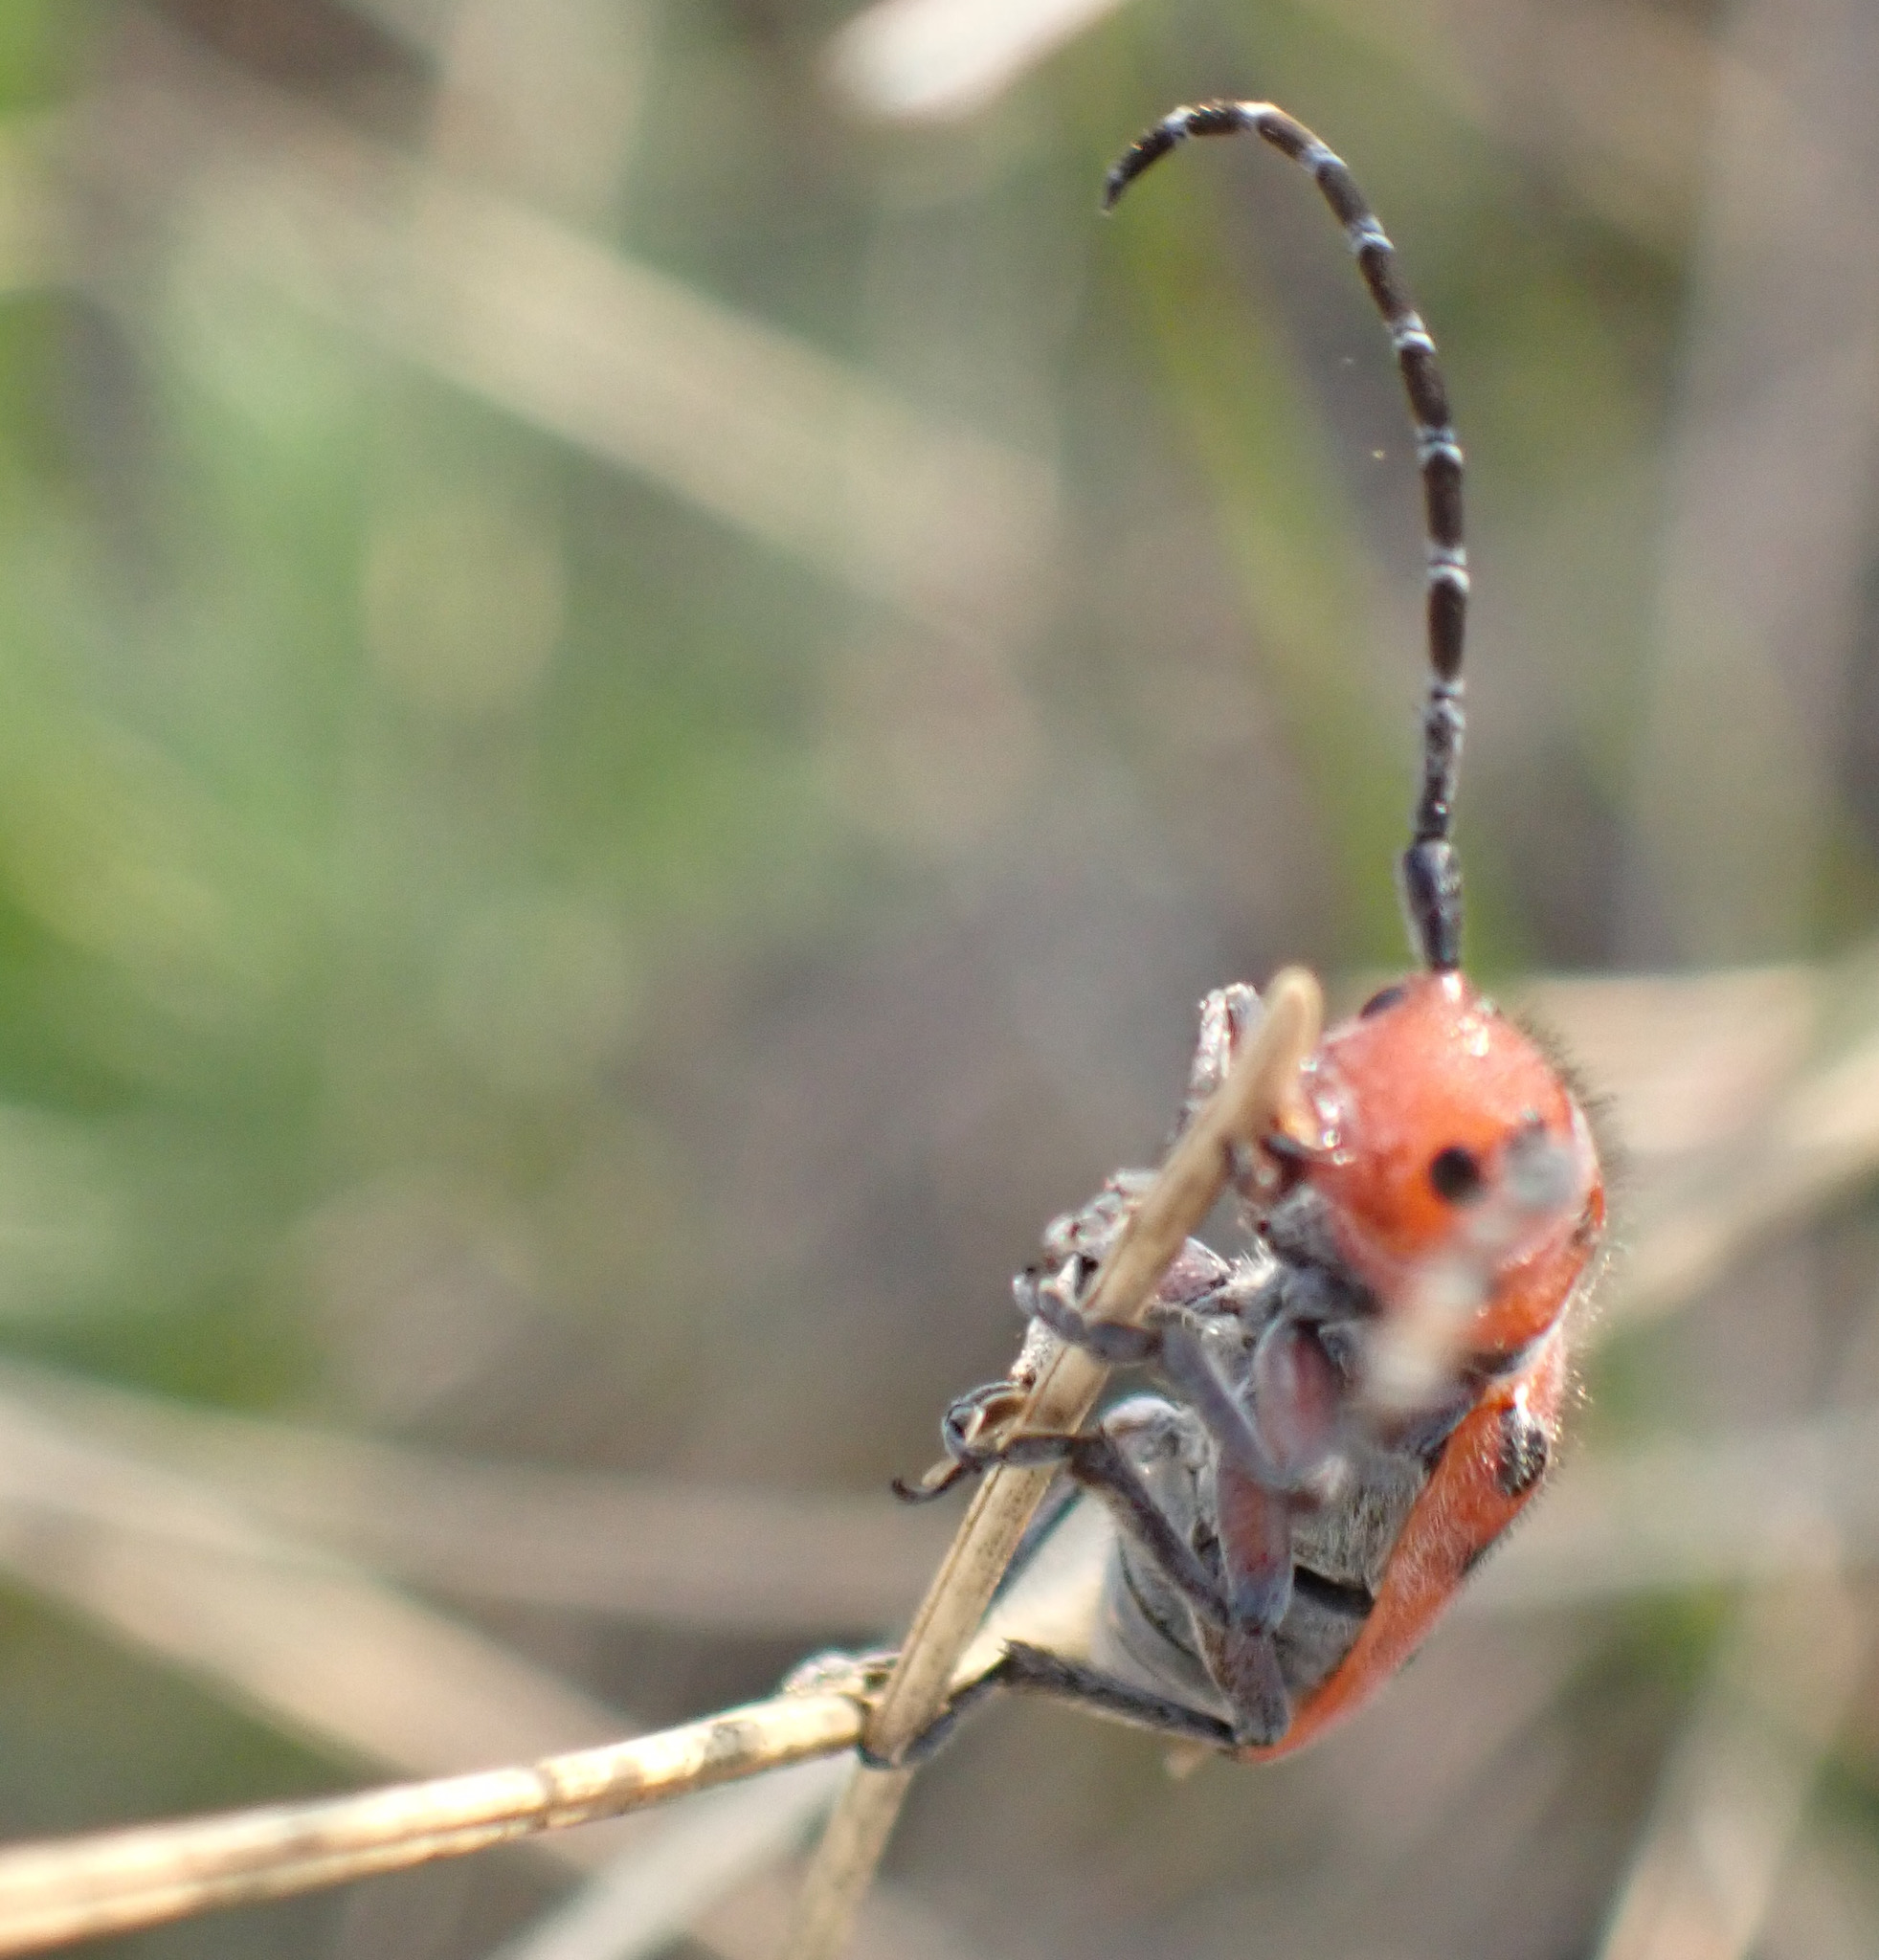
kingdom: Animalia
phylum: Arthropoda
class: Insecta
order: Coleoptera
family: Cerambycidae
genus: Tetraopes
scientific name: Tetraopes femoratus
